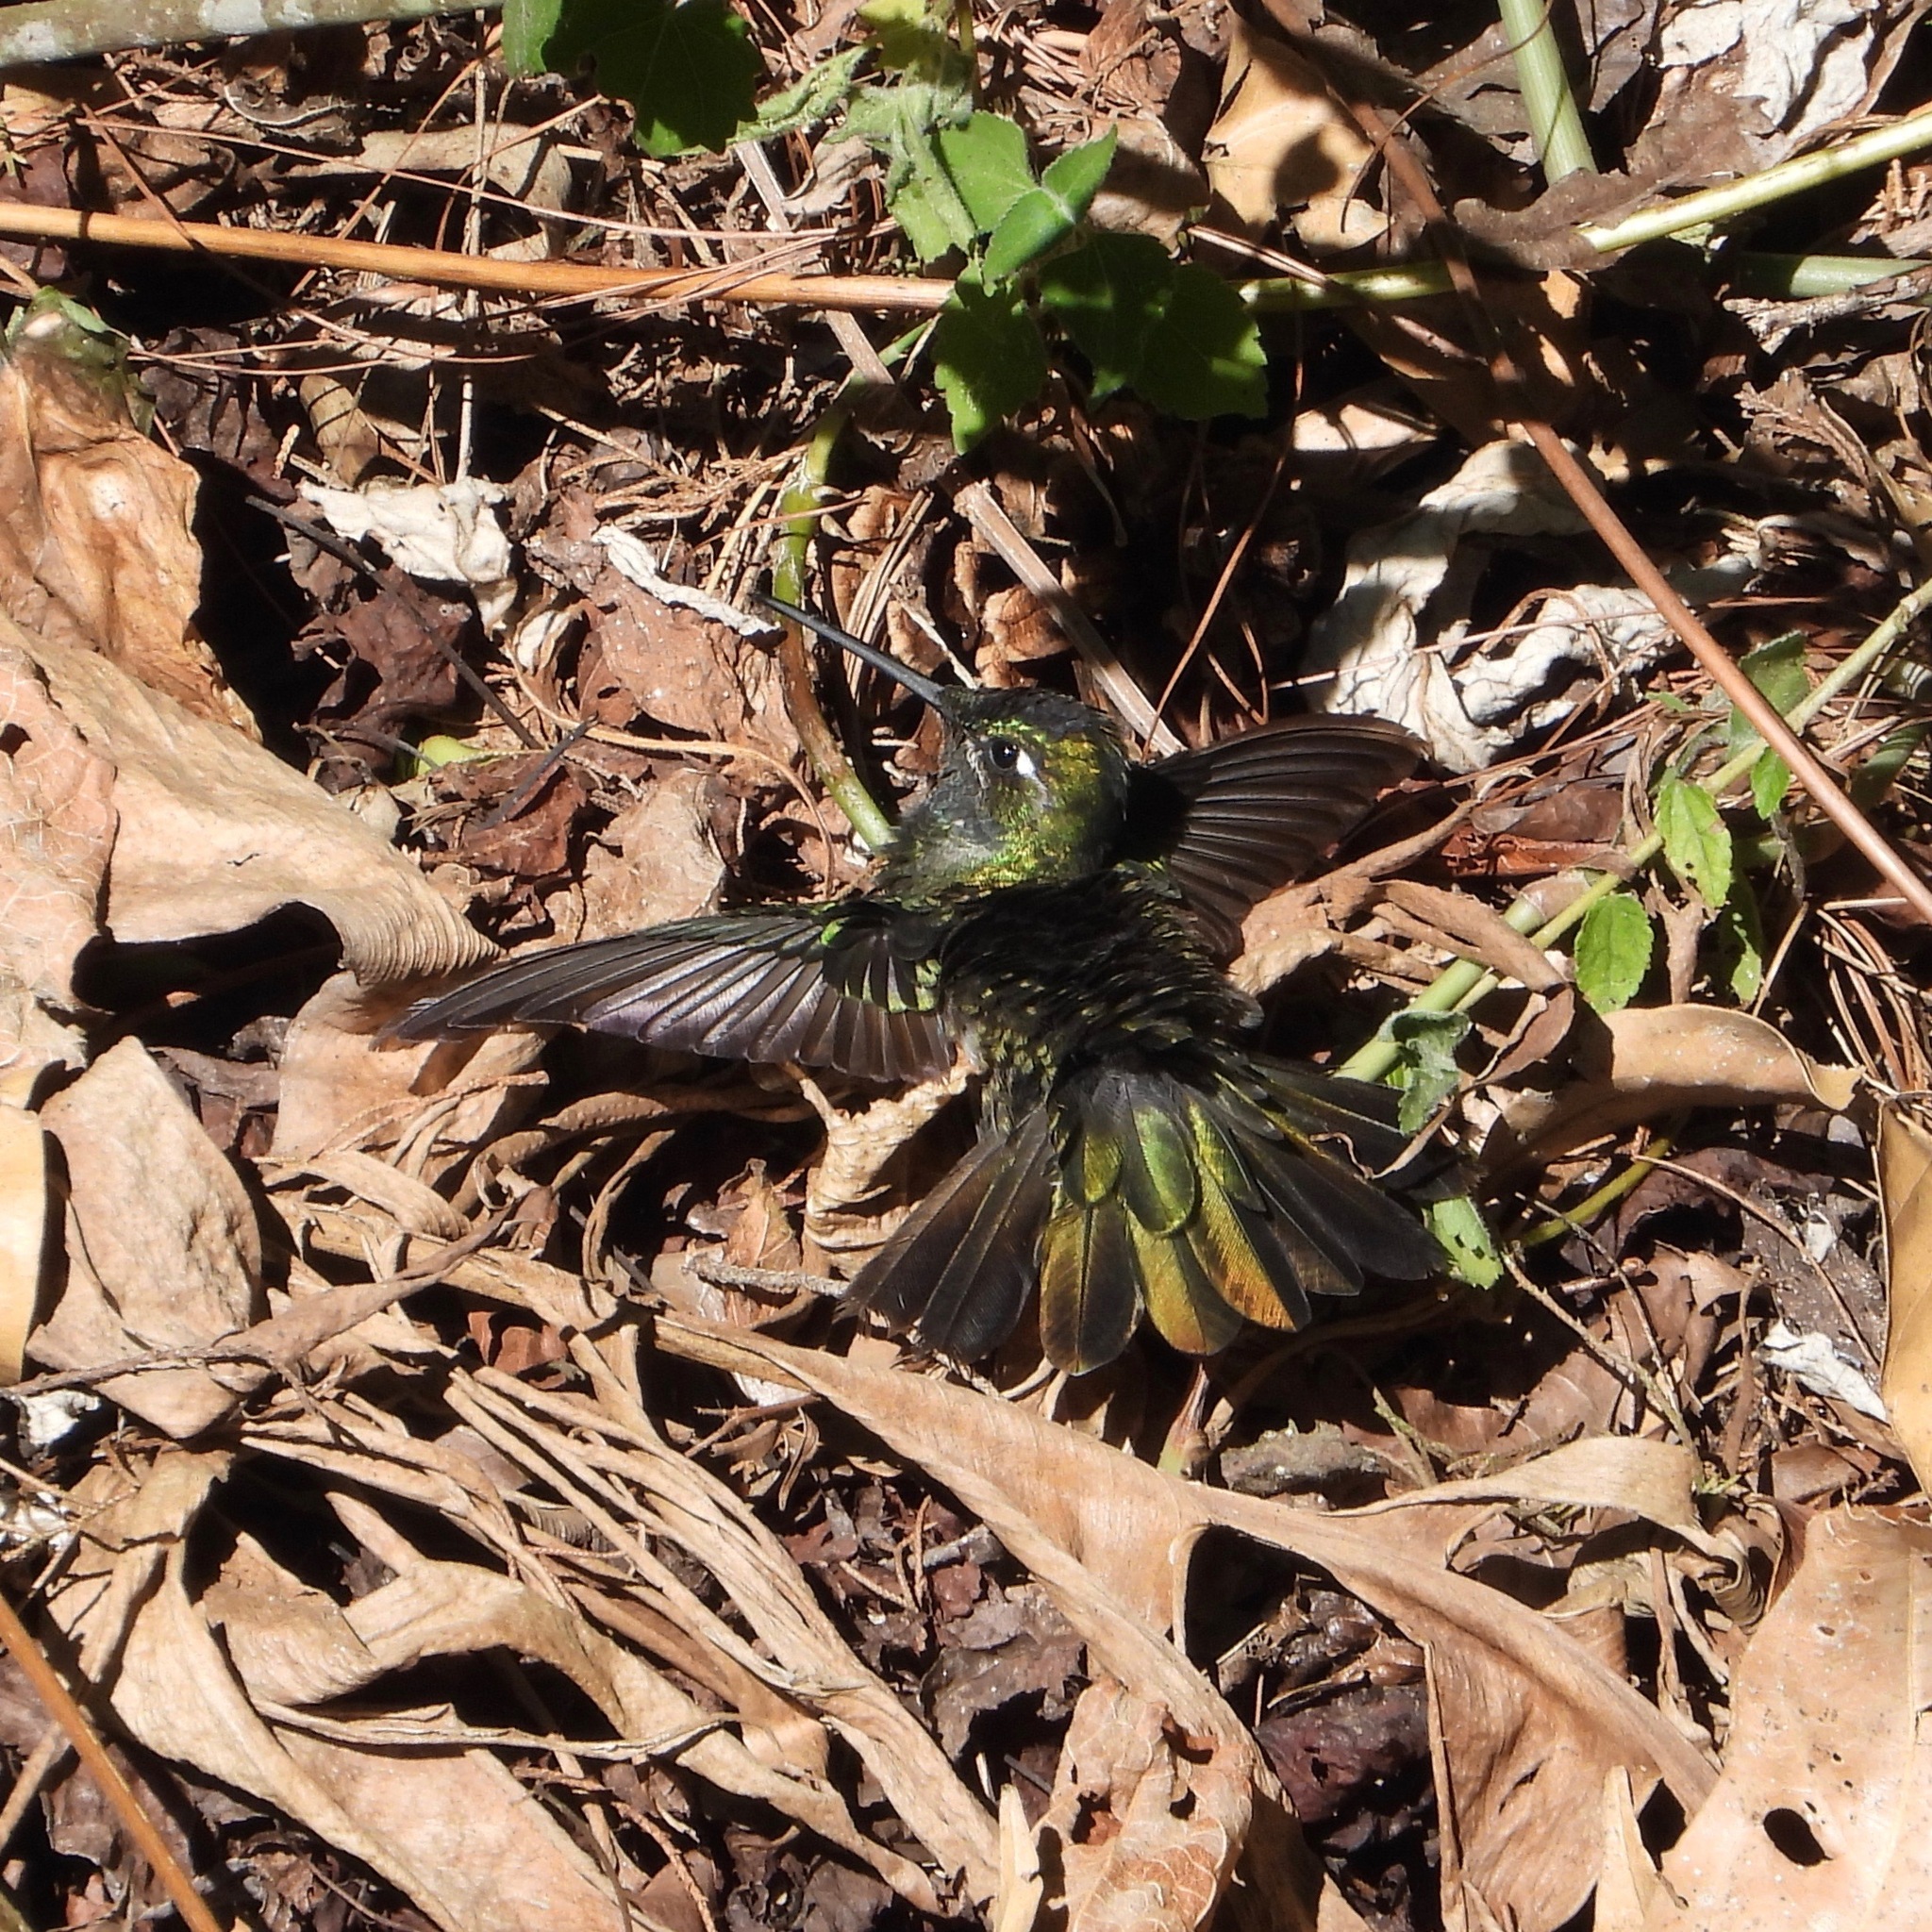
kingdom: Animalia
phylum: Chordata
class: Aves
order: Apodiformes
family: Trochilidae
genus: Eugenes
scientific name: Eugenes fulgens
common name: Magnificent hummingbird
